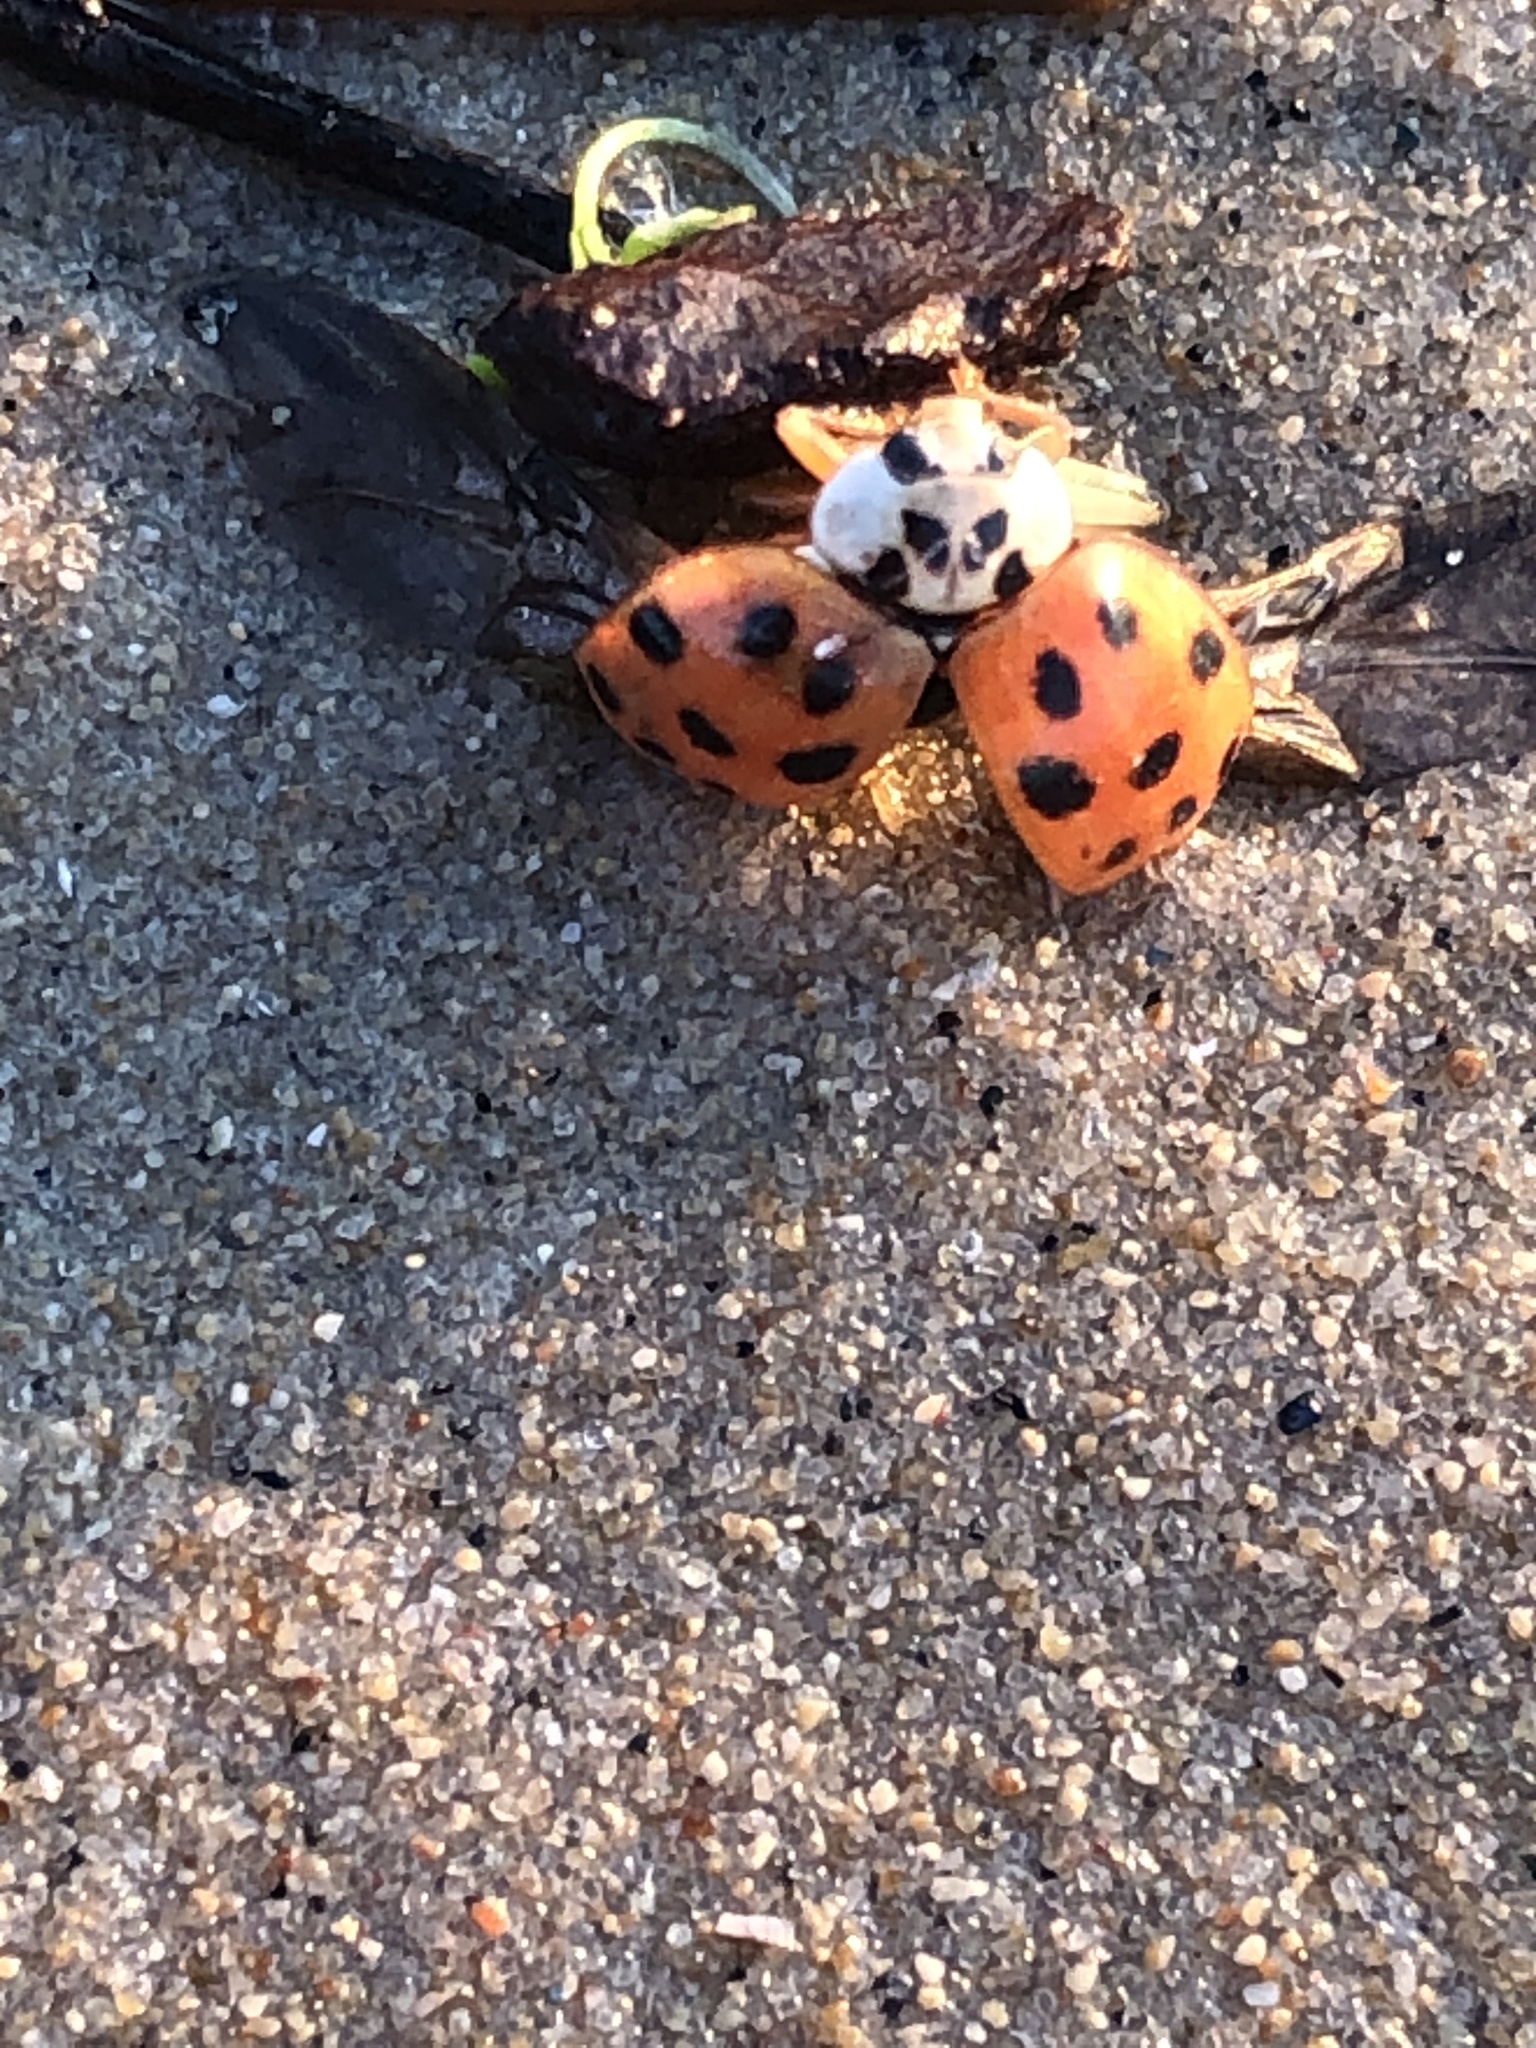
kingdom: Animalia
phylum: Arthropoda
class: Insecta
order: Coleoptera
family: Coccinellidae
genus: Harmonia
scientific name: Harmonia axyridis
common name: Harlequin ladybird
